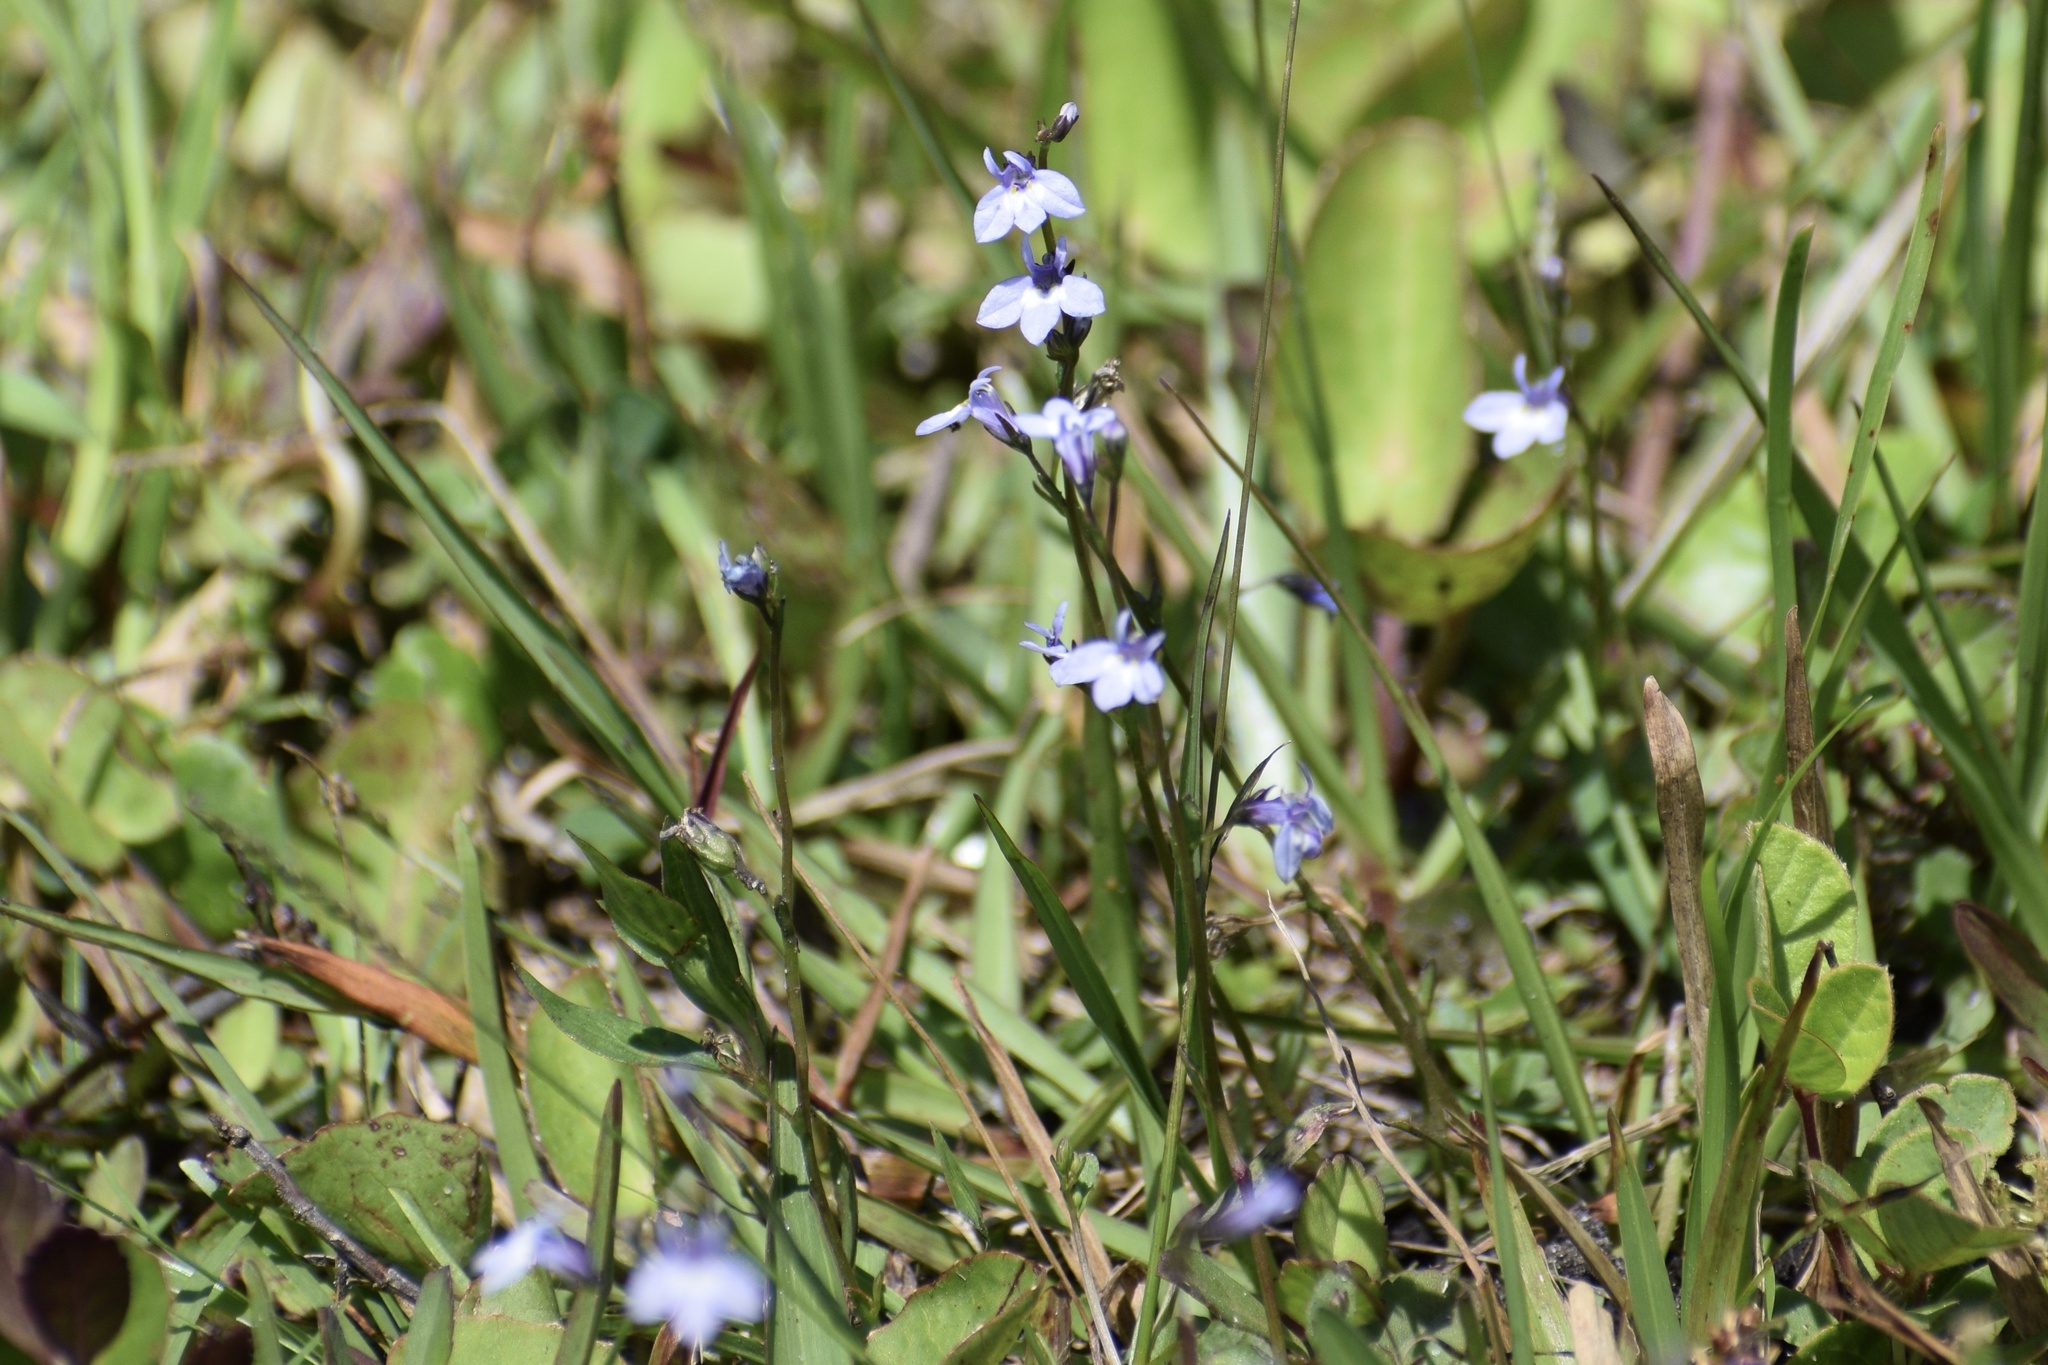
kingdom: Plantae
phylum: Tracheophyta
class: Magnoliopsida
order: Asterales
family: Campanulaceae
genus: Lobelia
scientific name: Lobelia feayana
